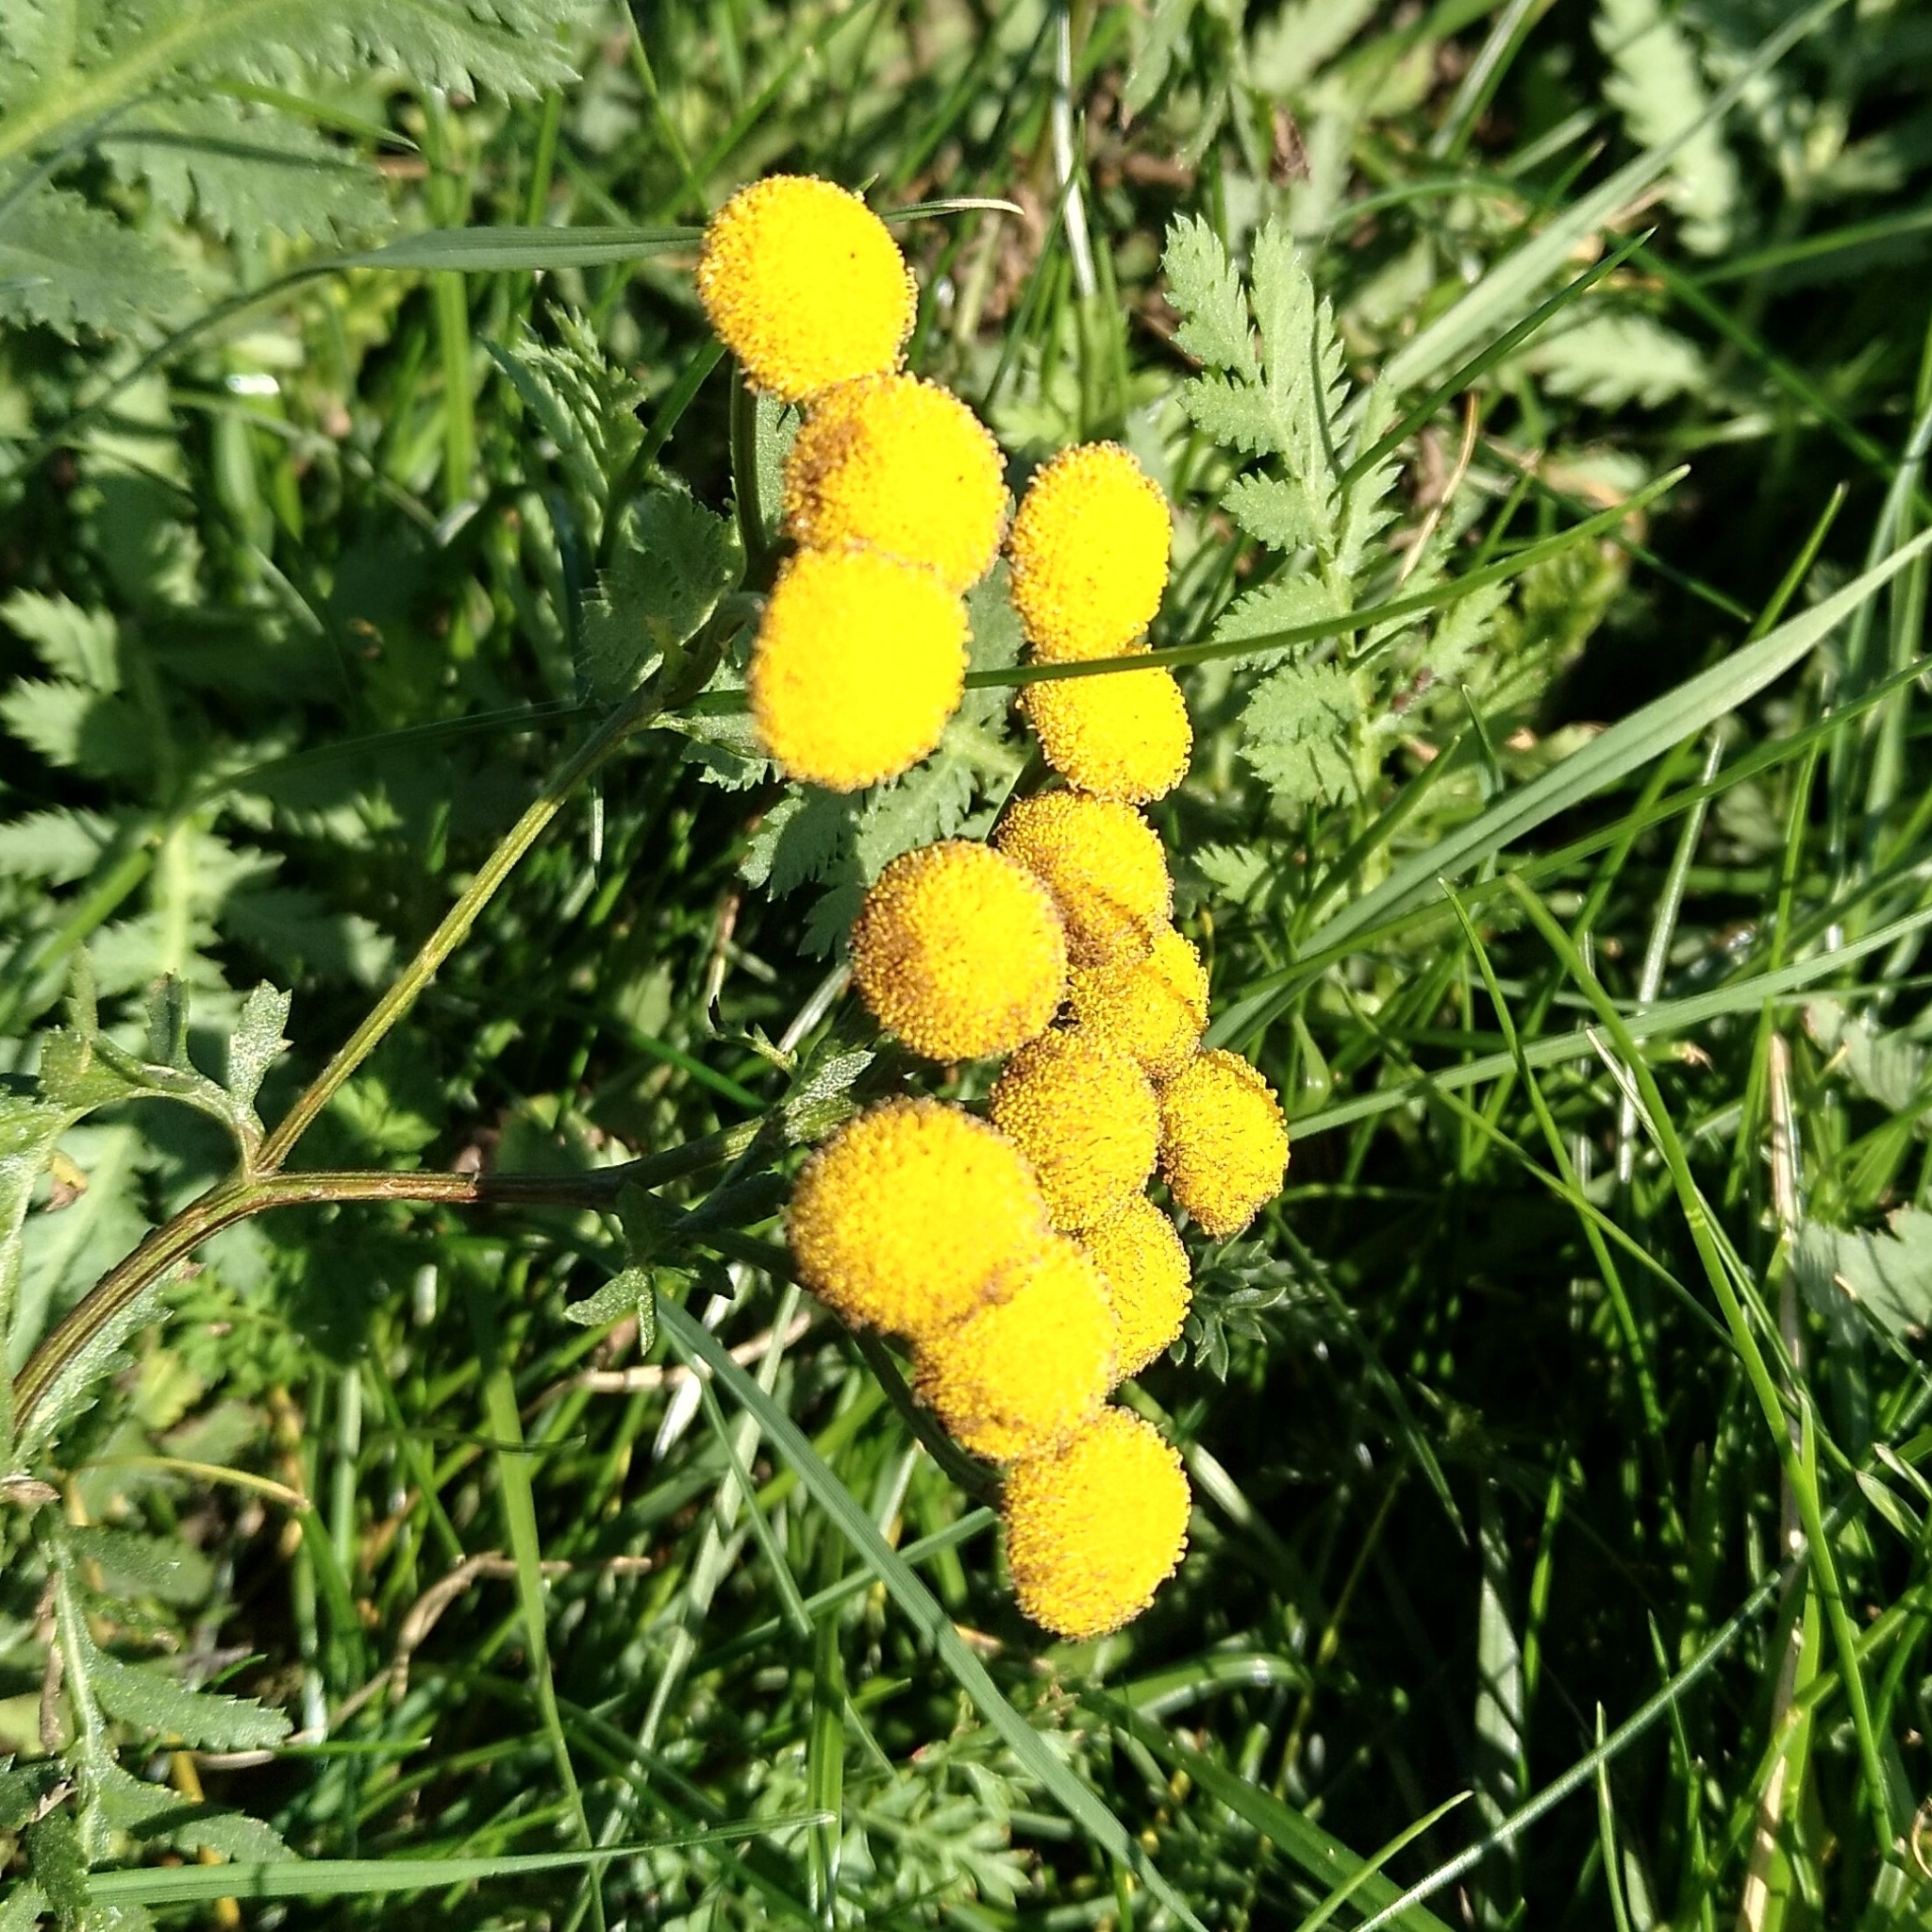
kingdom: Plantae
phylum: Tracheophyta
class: Magnoliopsida
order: Asterales
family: Asteraceae
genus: Tanacetum
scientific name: Tanacetum vulgare
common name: Common tansy
